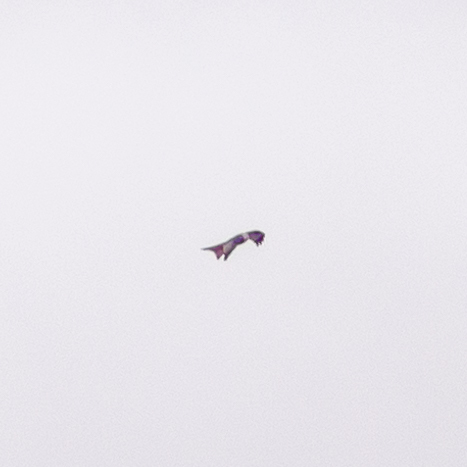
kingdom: Animalia
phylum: Chordata
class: Aves
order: Accipitriformes
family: Accipitridae
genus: Milvus
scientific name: Milvus milvus
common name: Red kite
